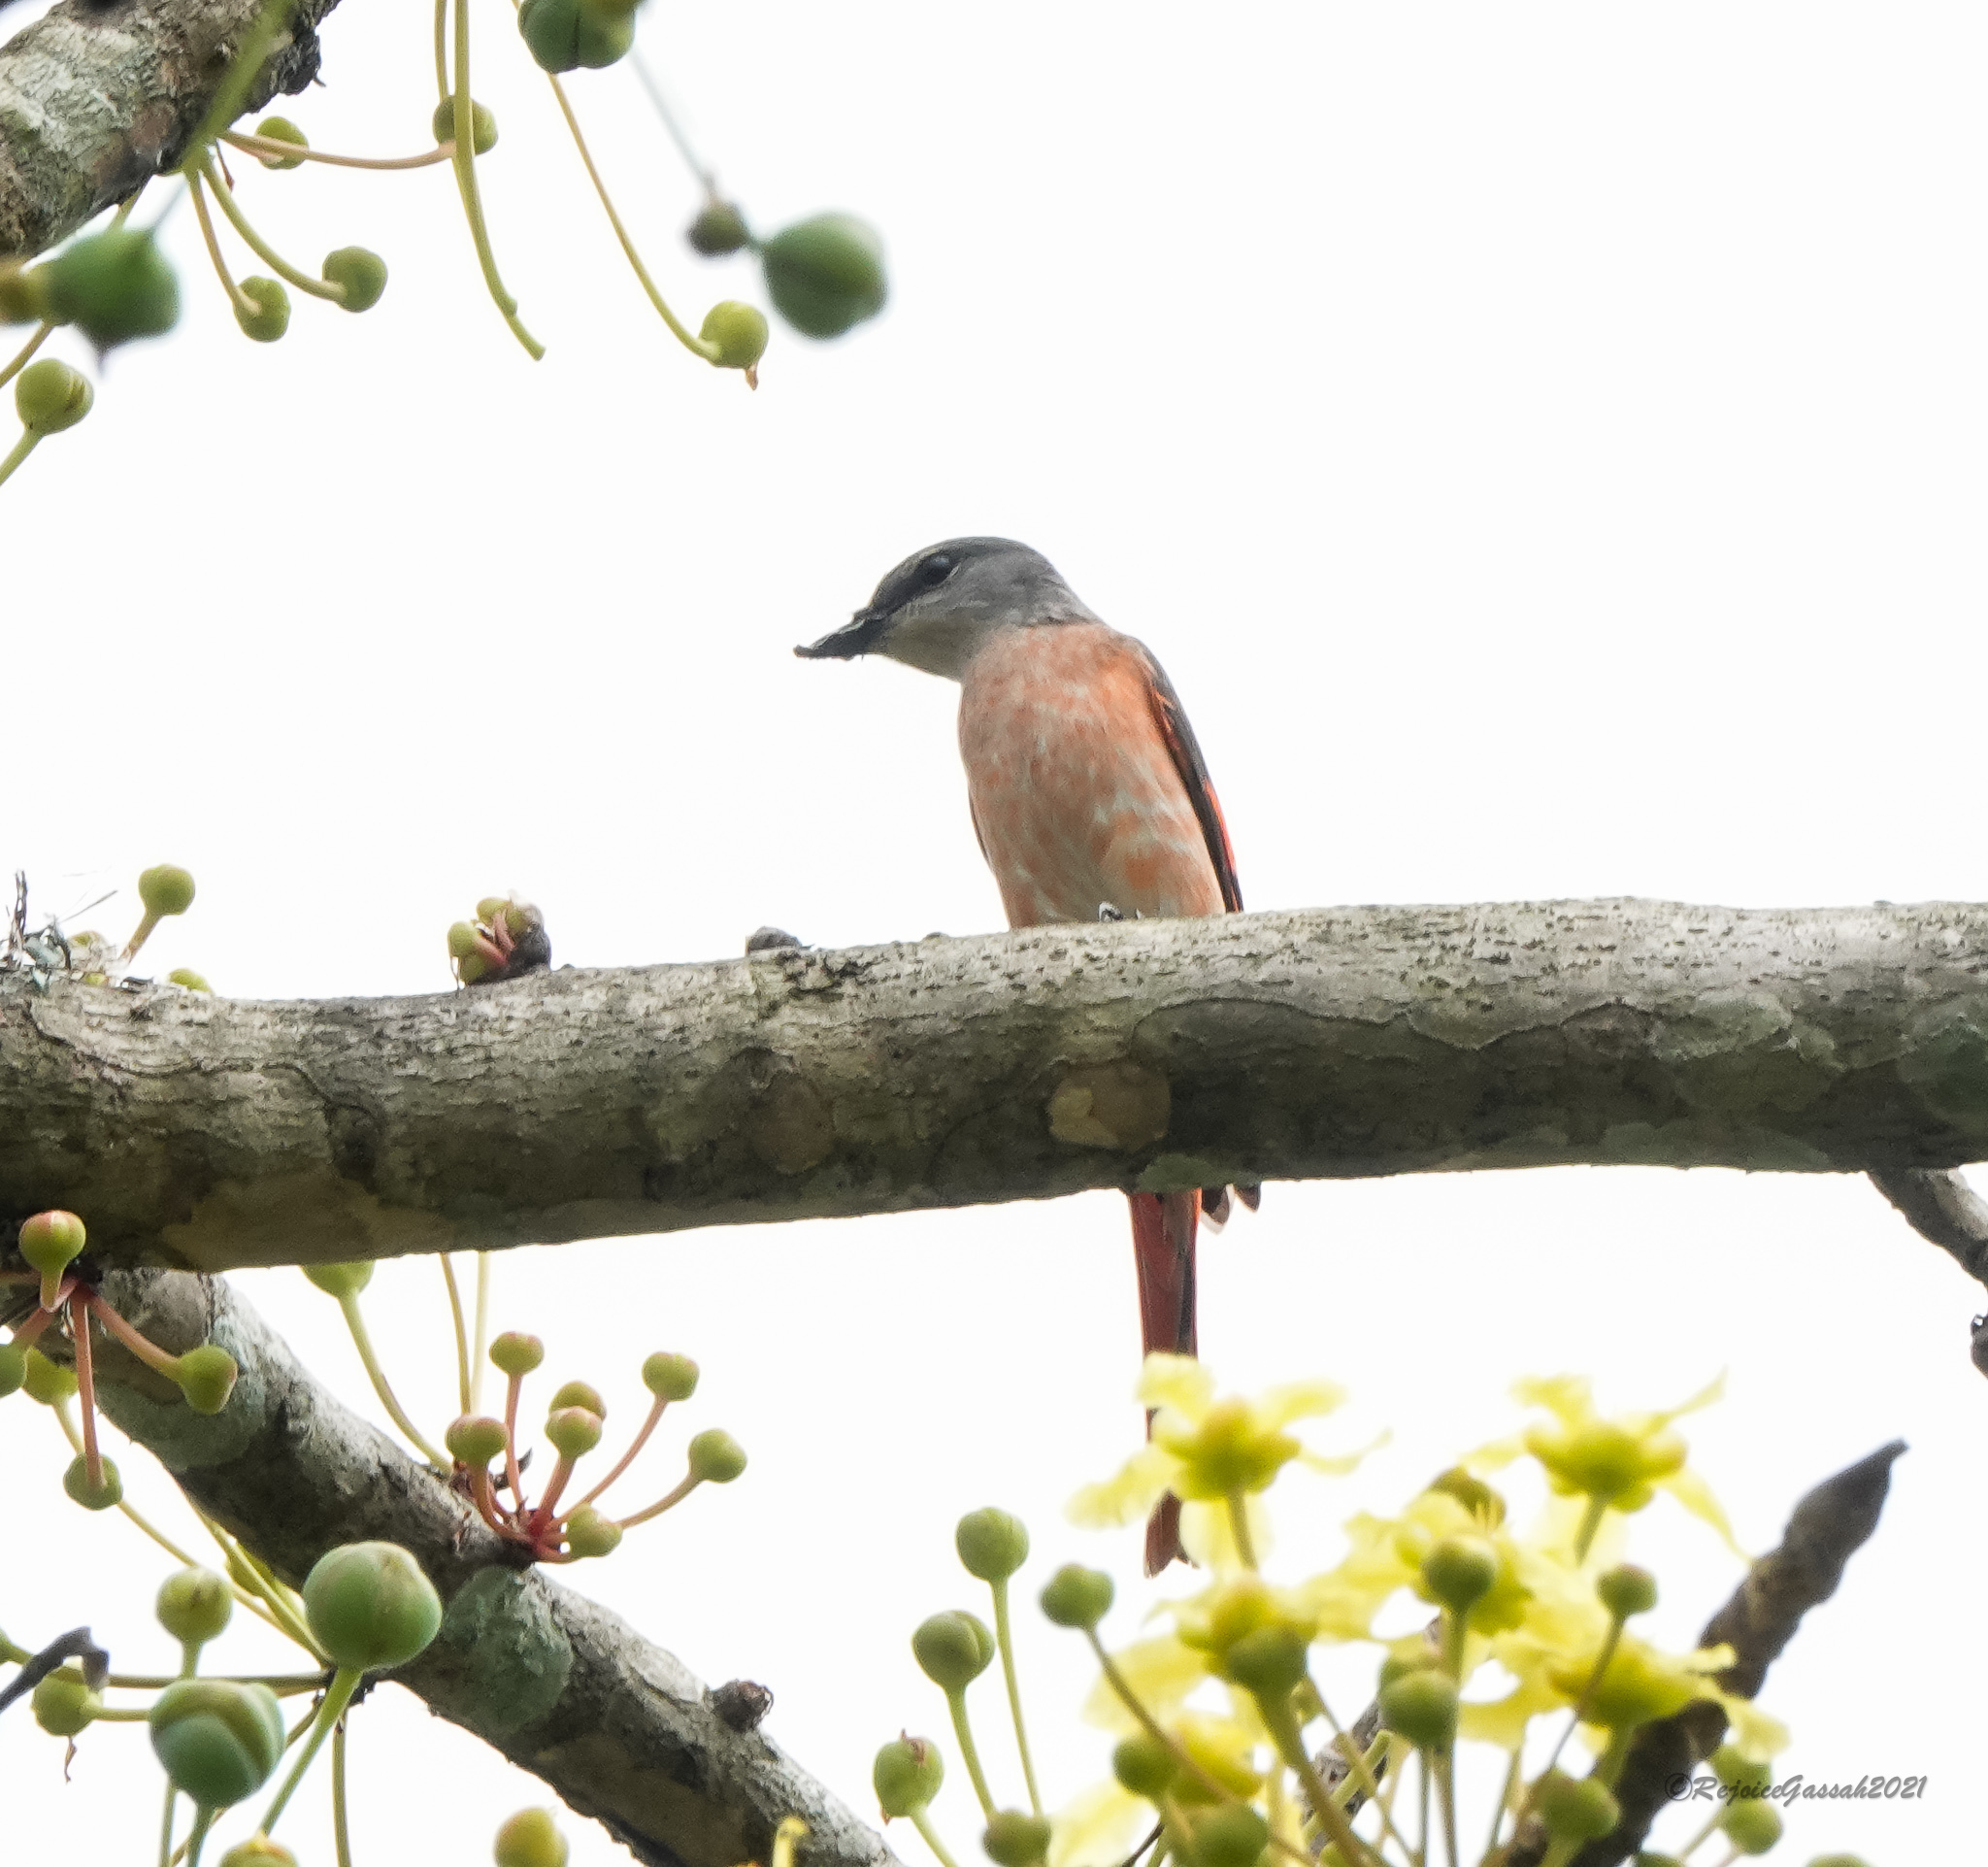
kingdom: Animalia
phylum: Chordata
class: Aves
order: Passeriformes
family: Campephagidae
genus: Pericrocotus
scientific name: Pericrocotus roseus
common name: Rosy minivet
